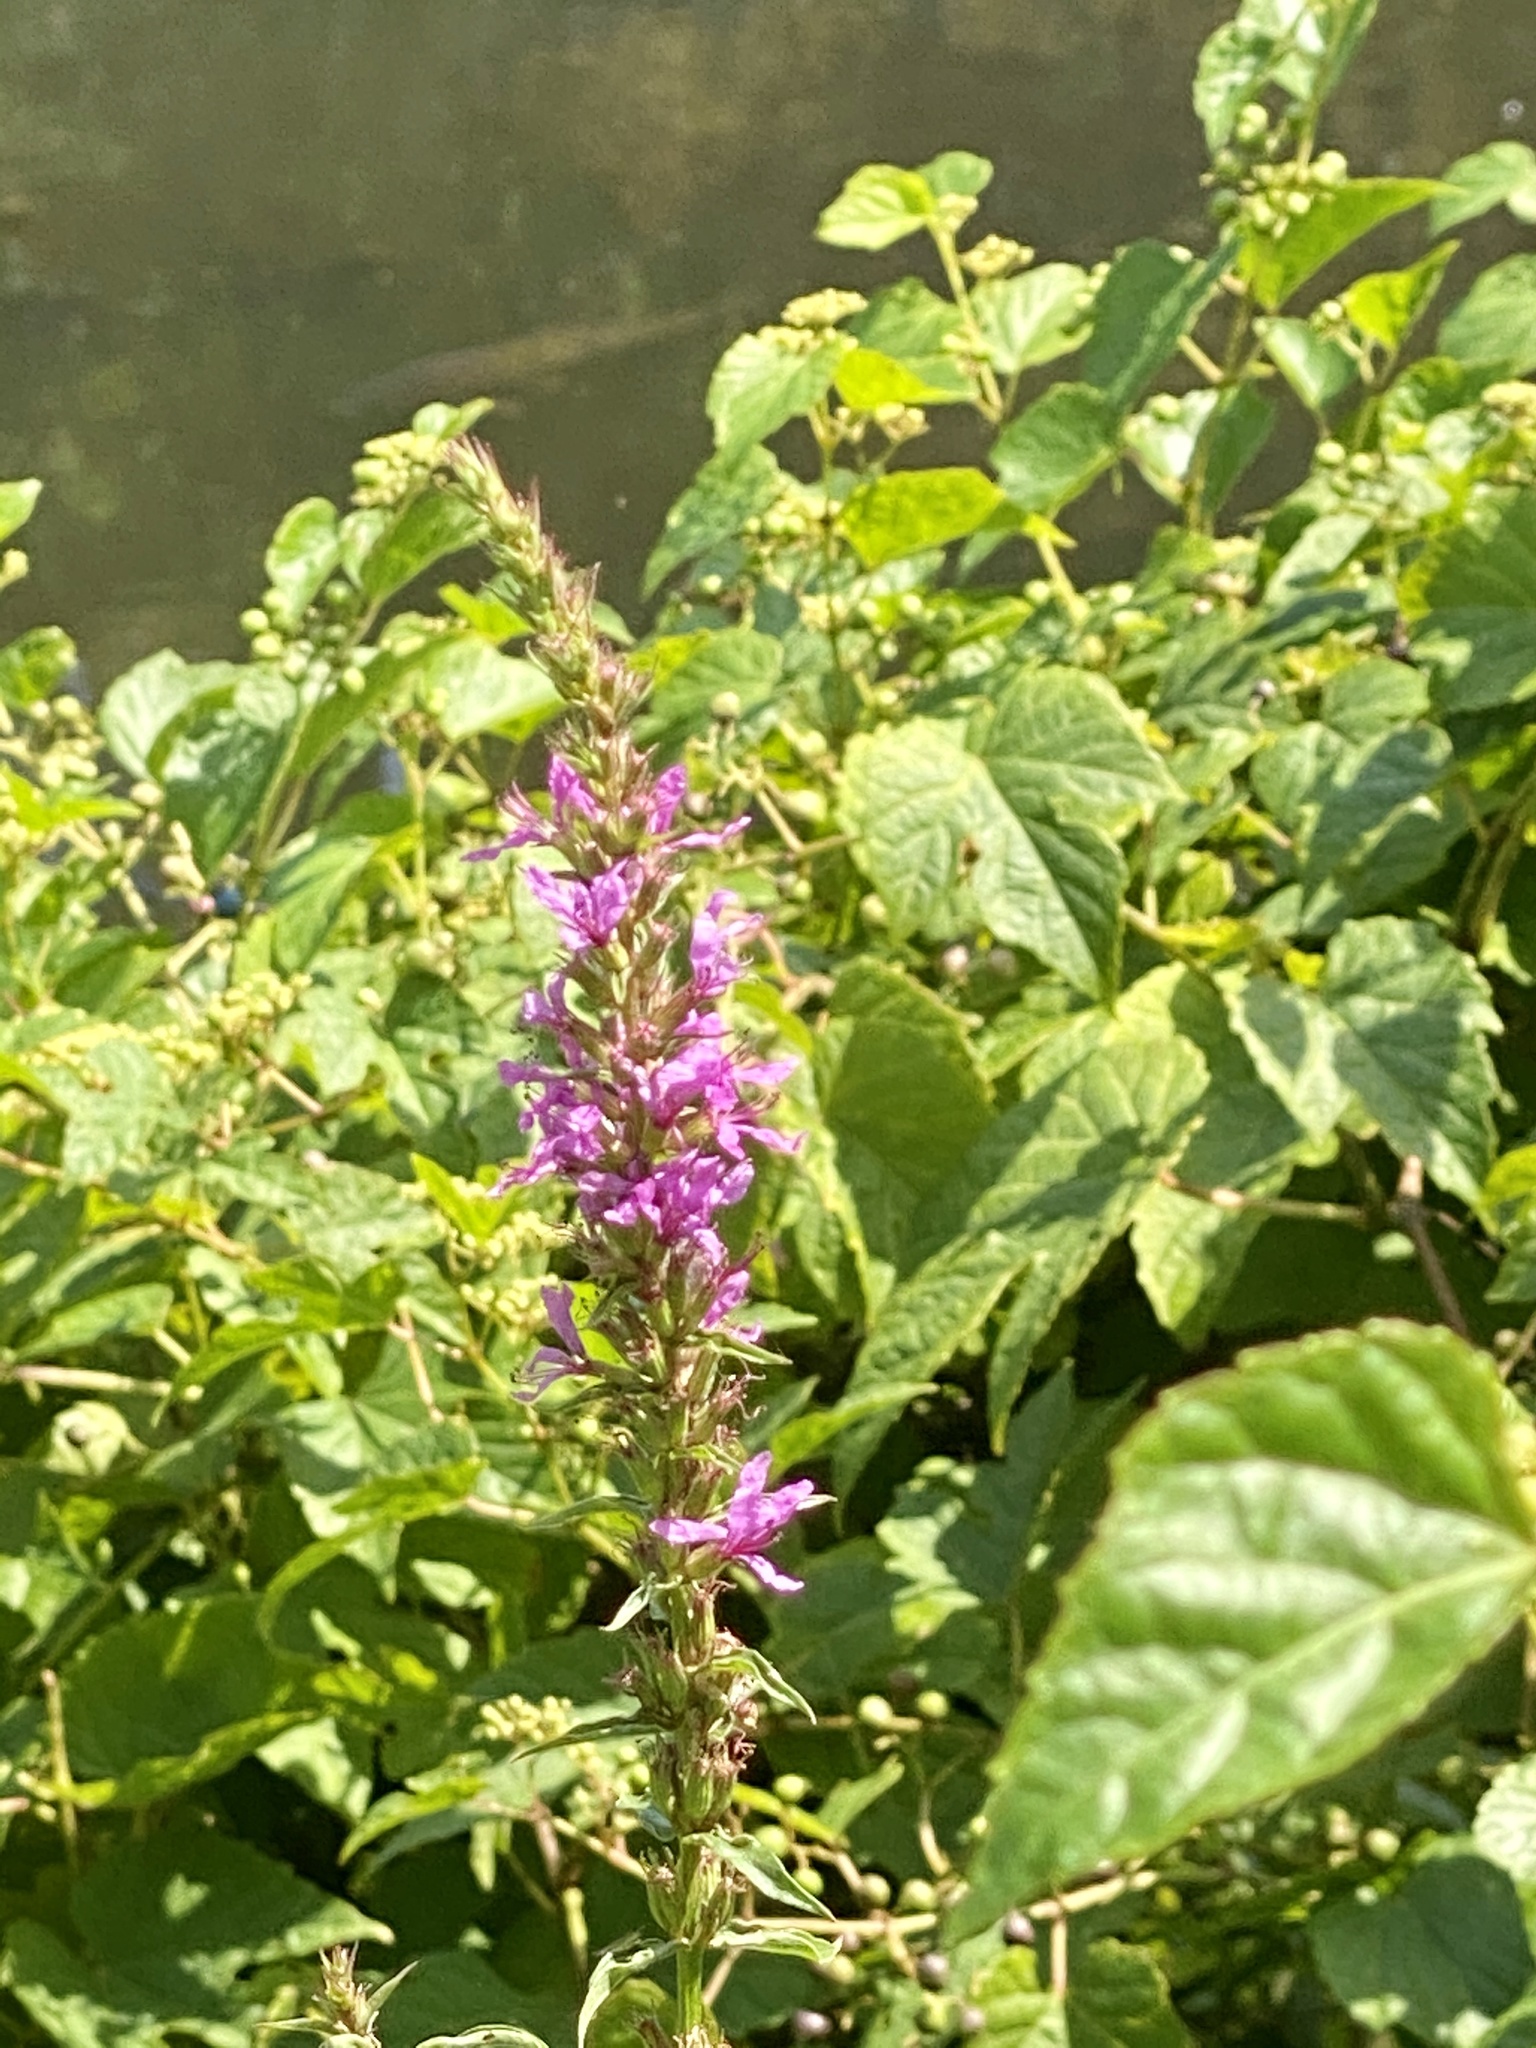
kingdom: Plantae
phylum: Tracheophyta
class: Magnoliopsida
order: Myrtales
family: Lythraceae
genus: Lythrum
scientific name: Lythrum salicaria
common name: Purple loosestrife
